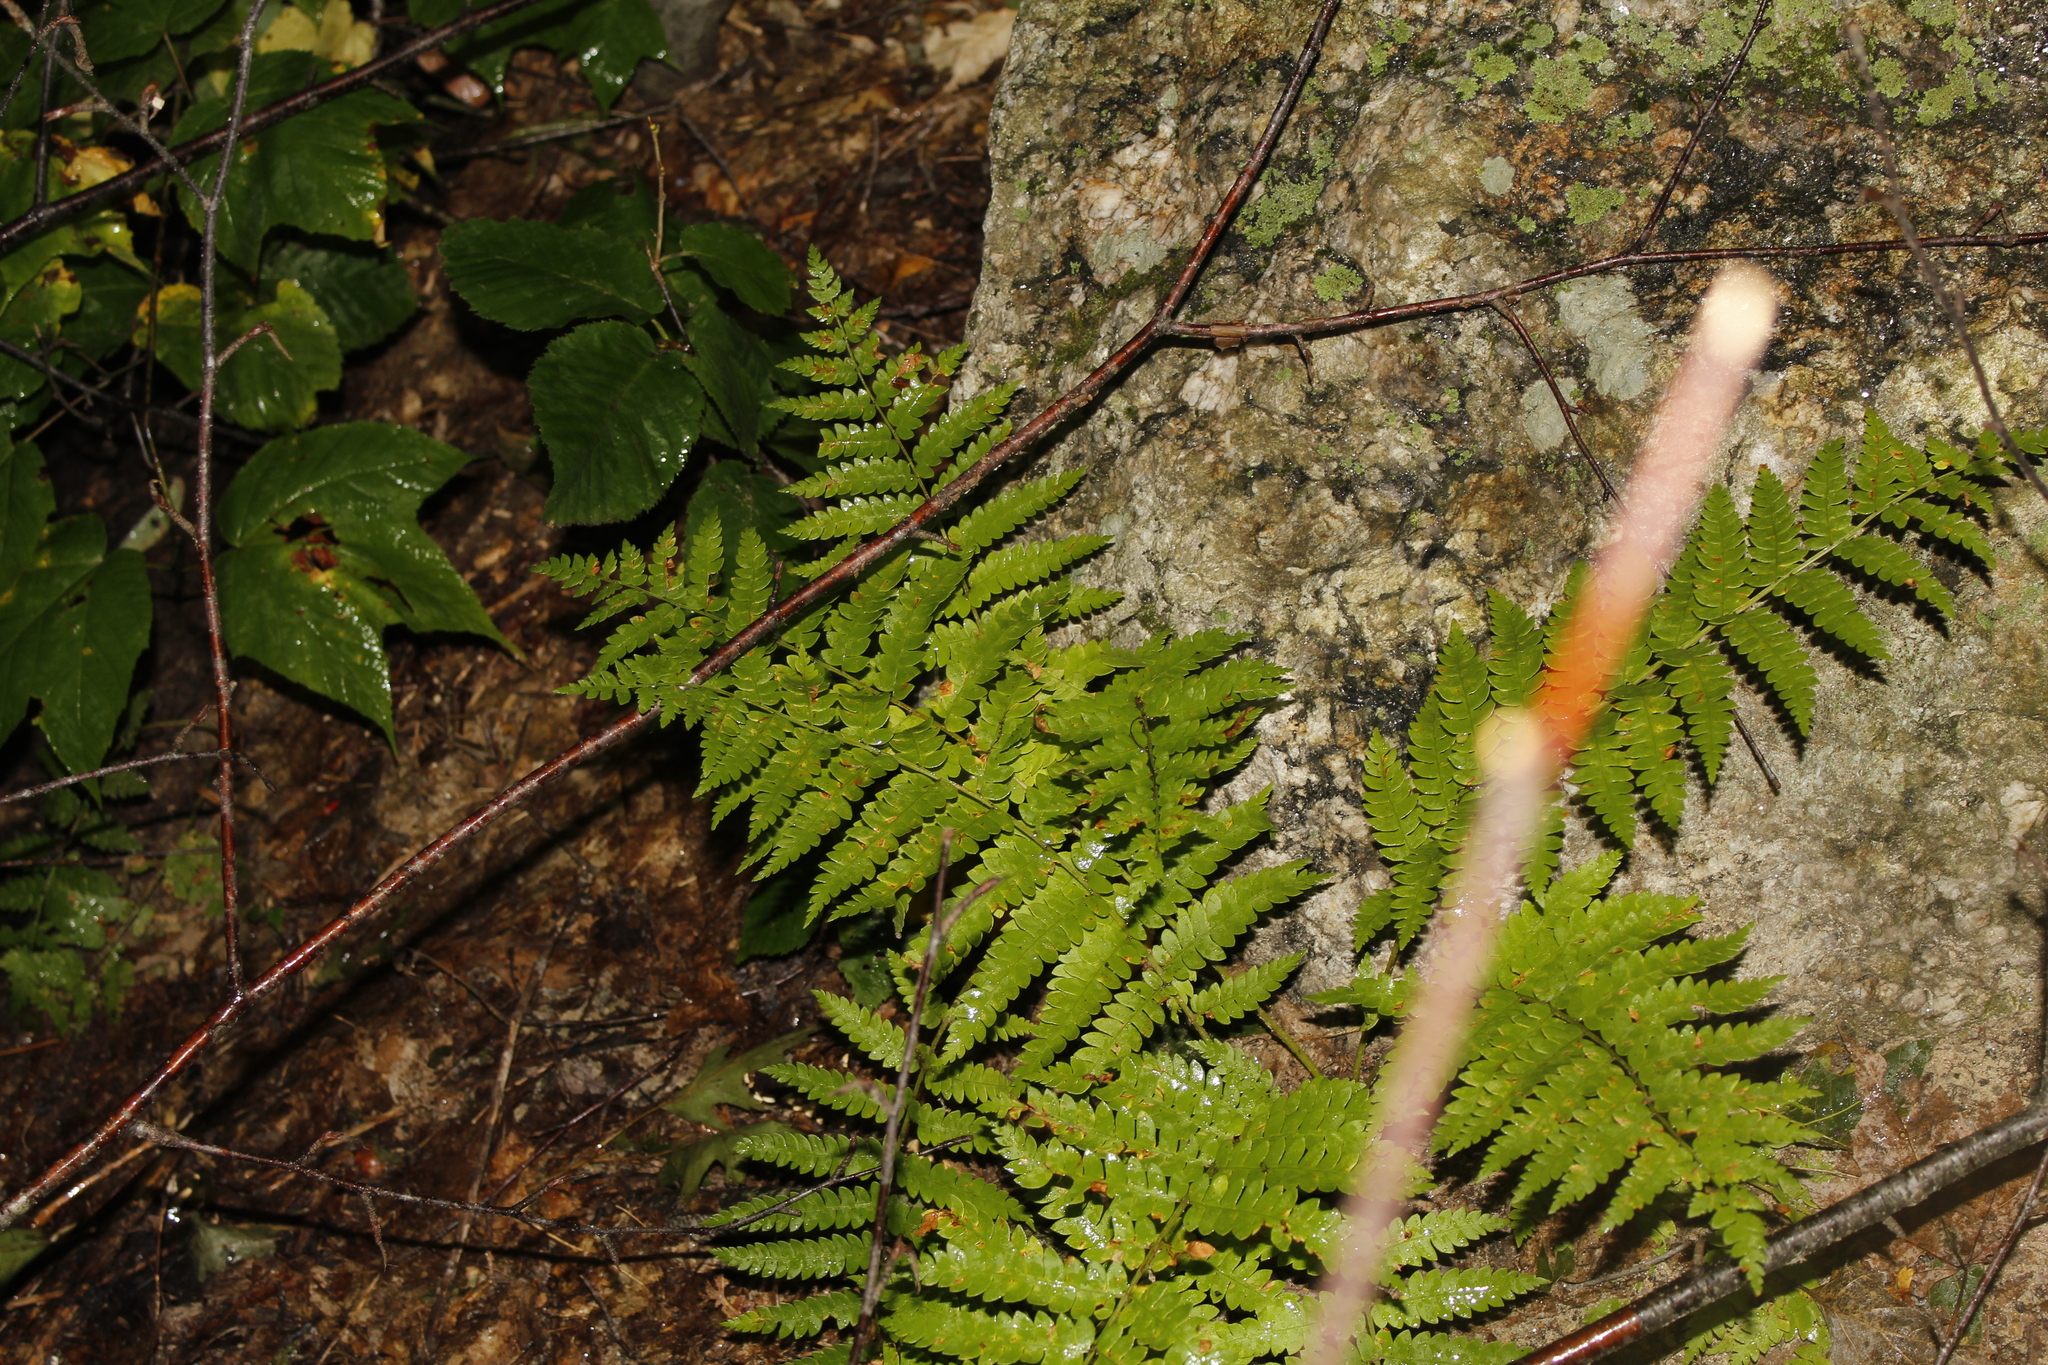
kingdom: Plantae
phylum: Tracheophyta
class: Polypodiopsida
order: Osmundales
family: Osmundaceae
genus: Osmundastrum
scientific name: Osmundastrum cinnamomeum
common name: Cinnamon fern
